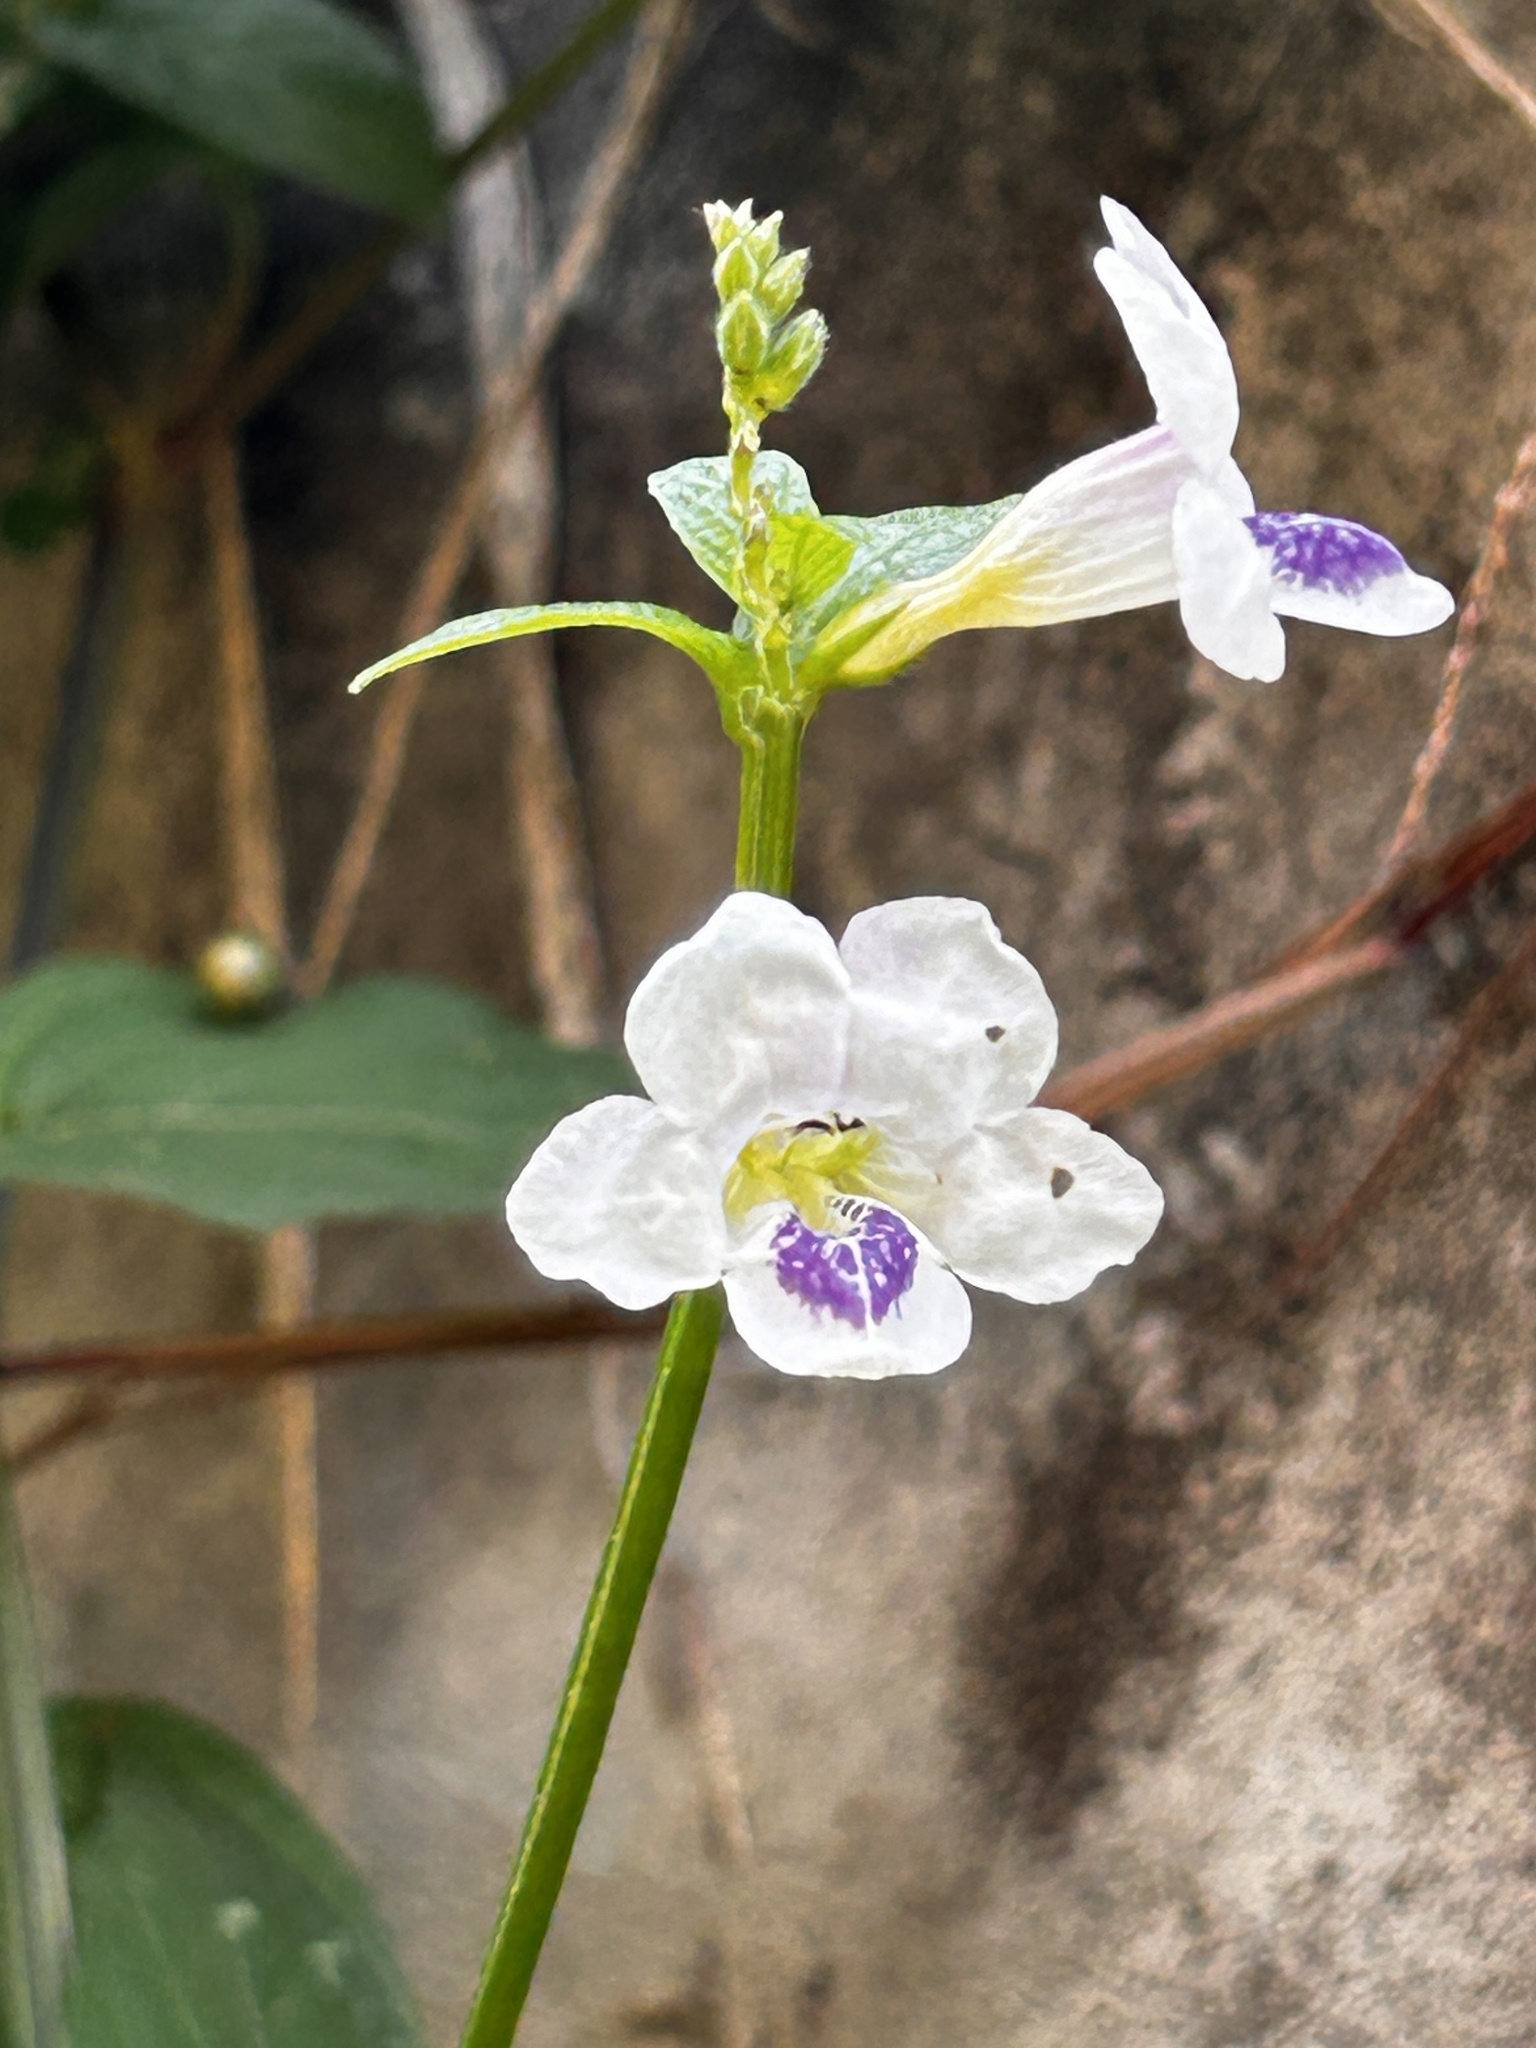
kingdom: Plantae
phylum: Tracheophyta
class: Magnoliopsida
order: Lamiales
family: Acanthaceae
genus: Asystasia
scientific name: Asystasia intrusa
